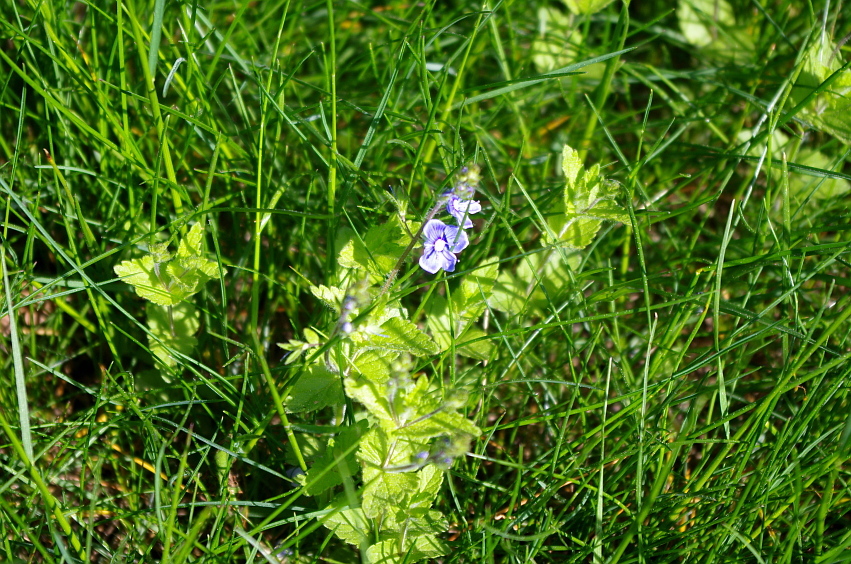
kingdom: Plantae
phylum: Tracheophyta
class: Magnoliopsida
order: Lamiales
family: Plantaginaceae
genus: Veronica
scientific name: Veronica chamaedrys
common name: Germander speedwell
